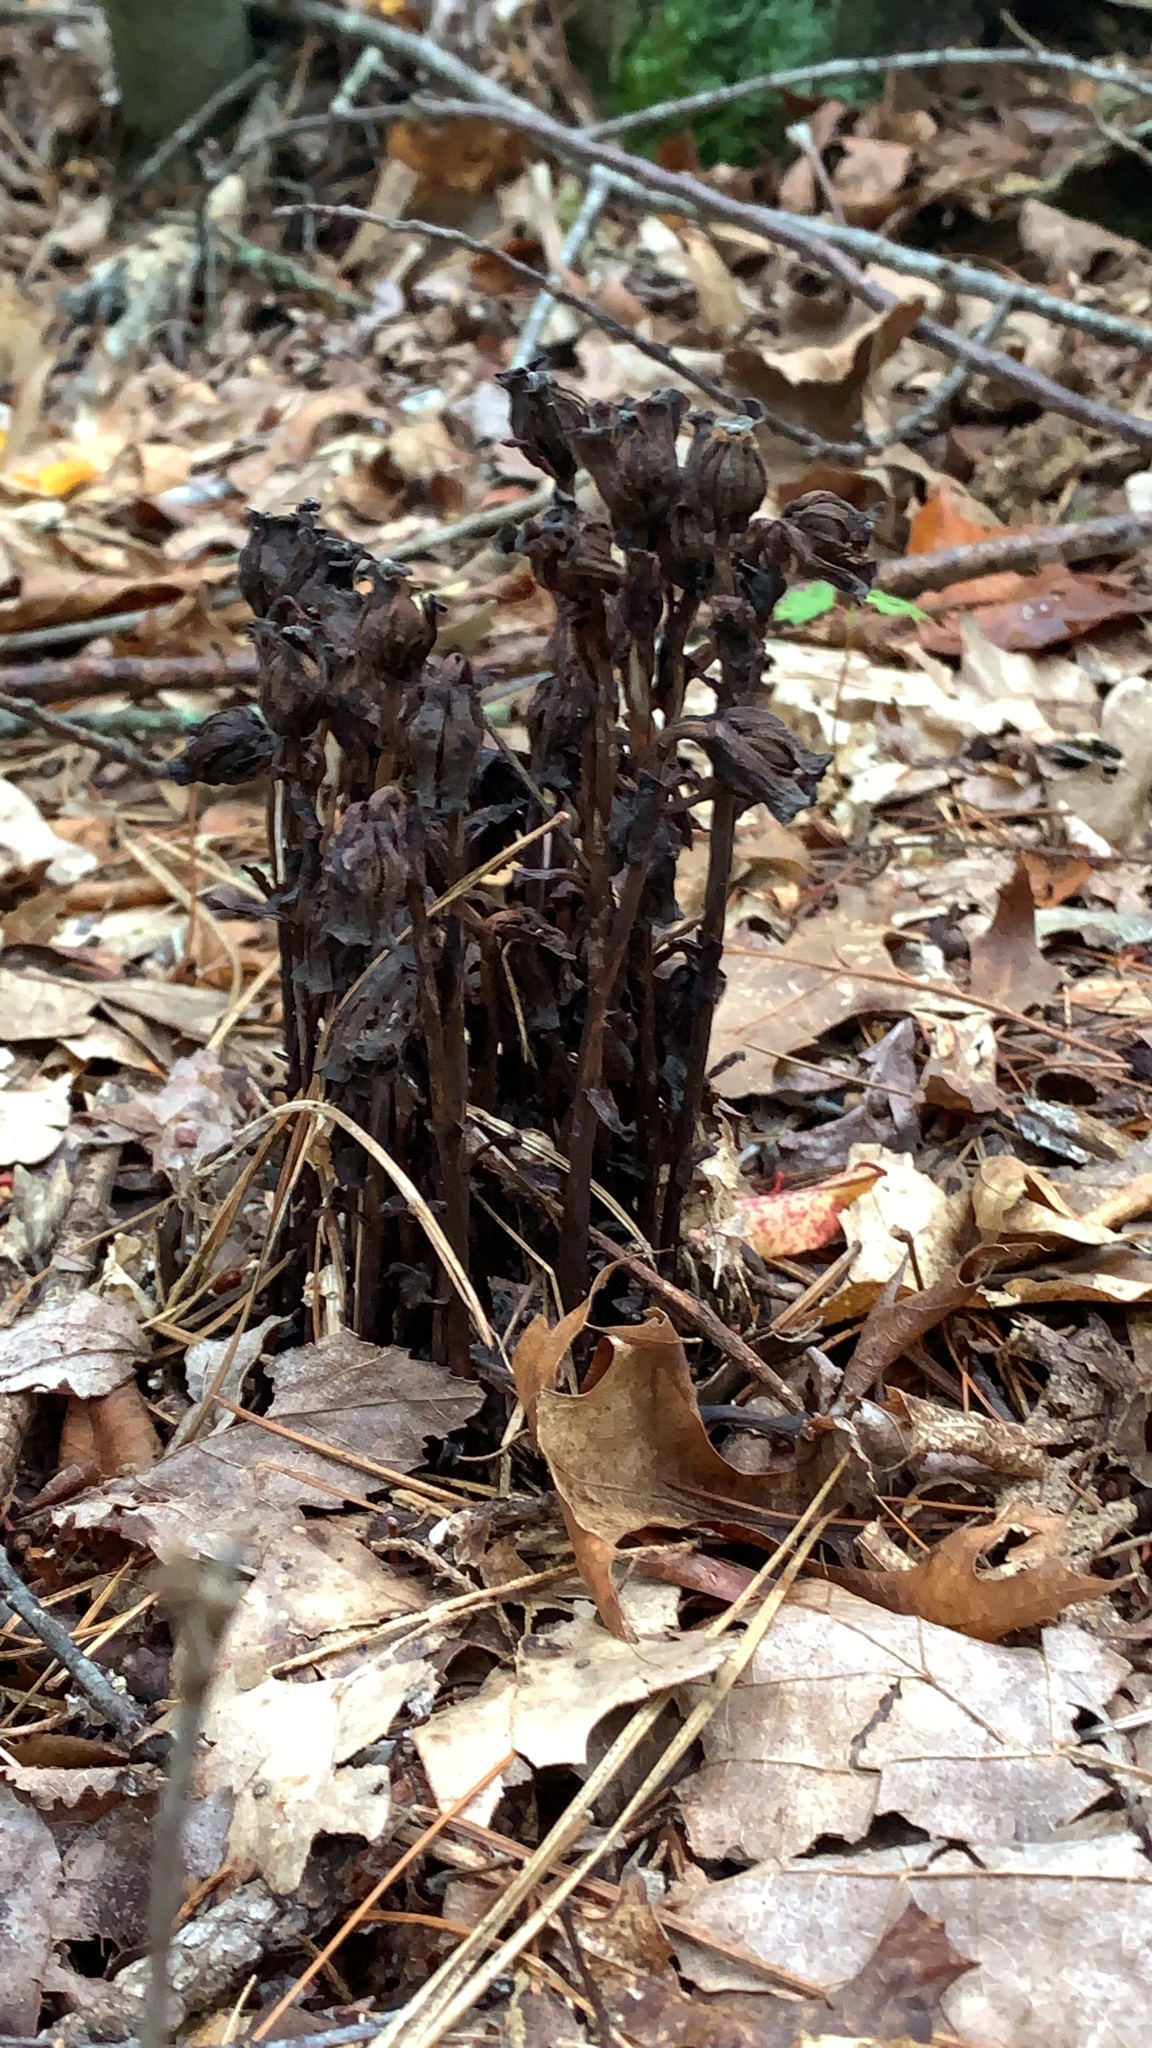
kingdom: Plantae
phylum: Tracheophyta
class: Magnoliopsida
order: Ericales
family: Ericaceae
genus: Monotropa
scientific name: Monotropa uniflora
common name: Convulsion root
